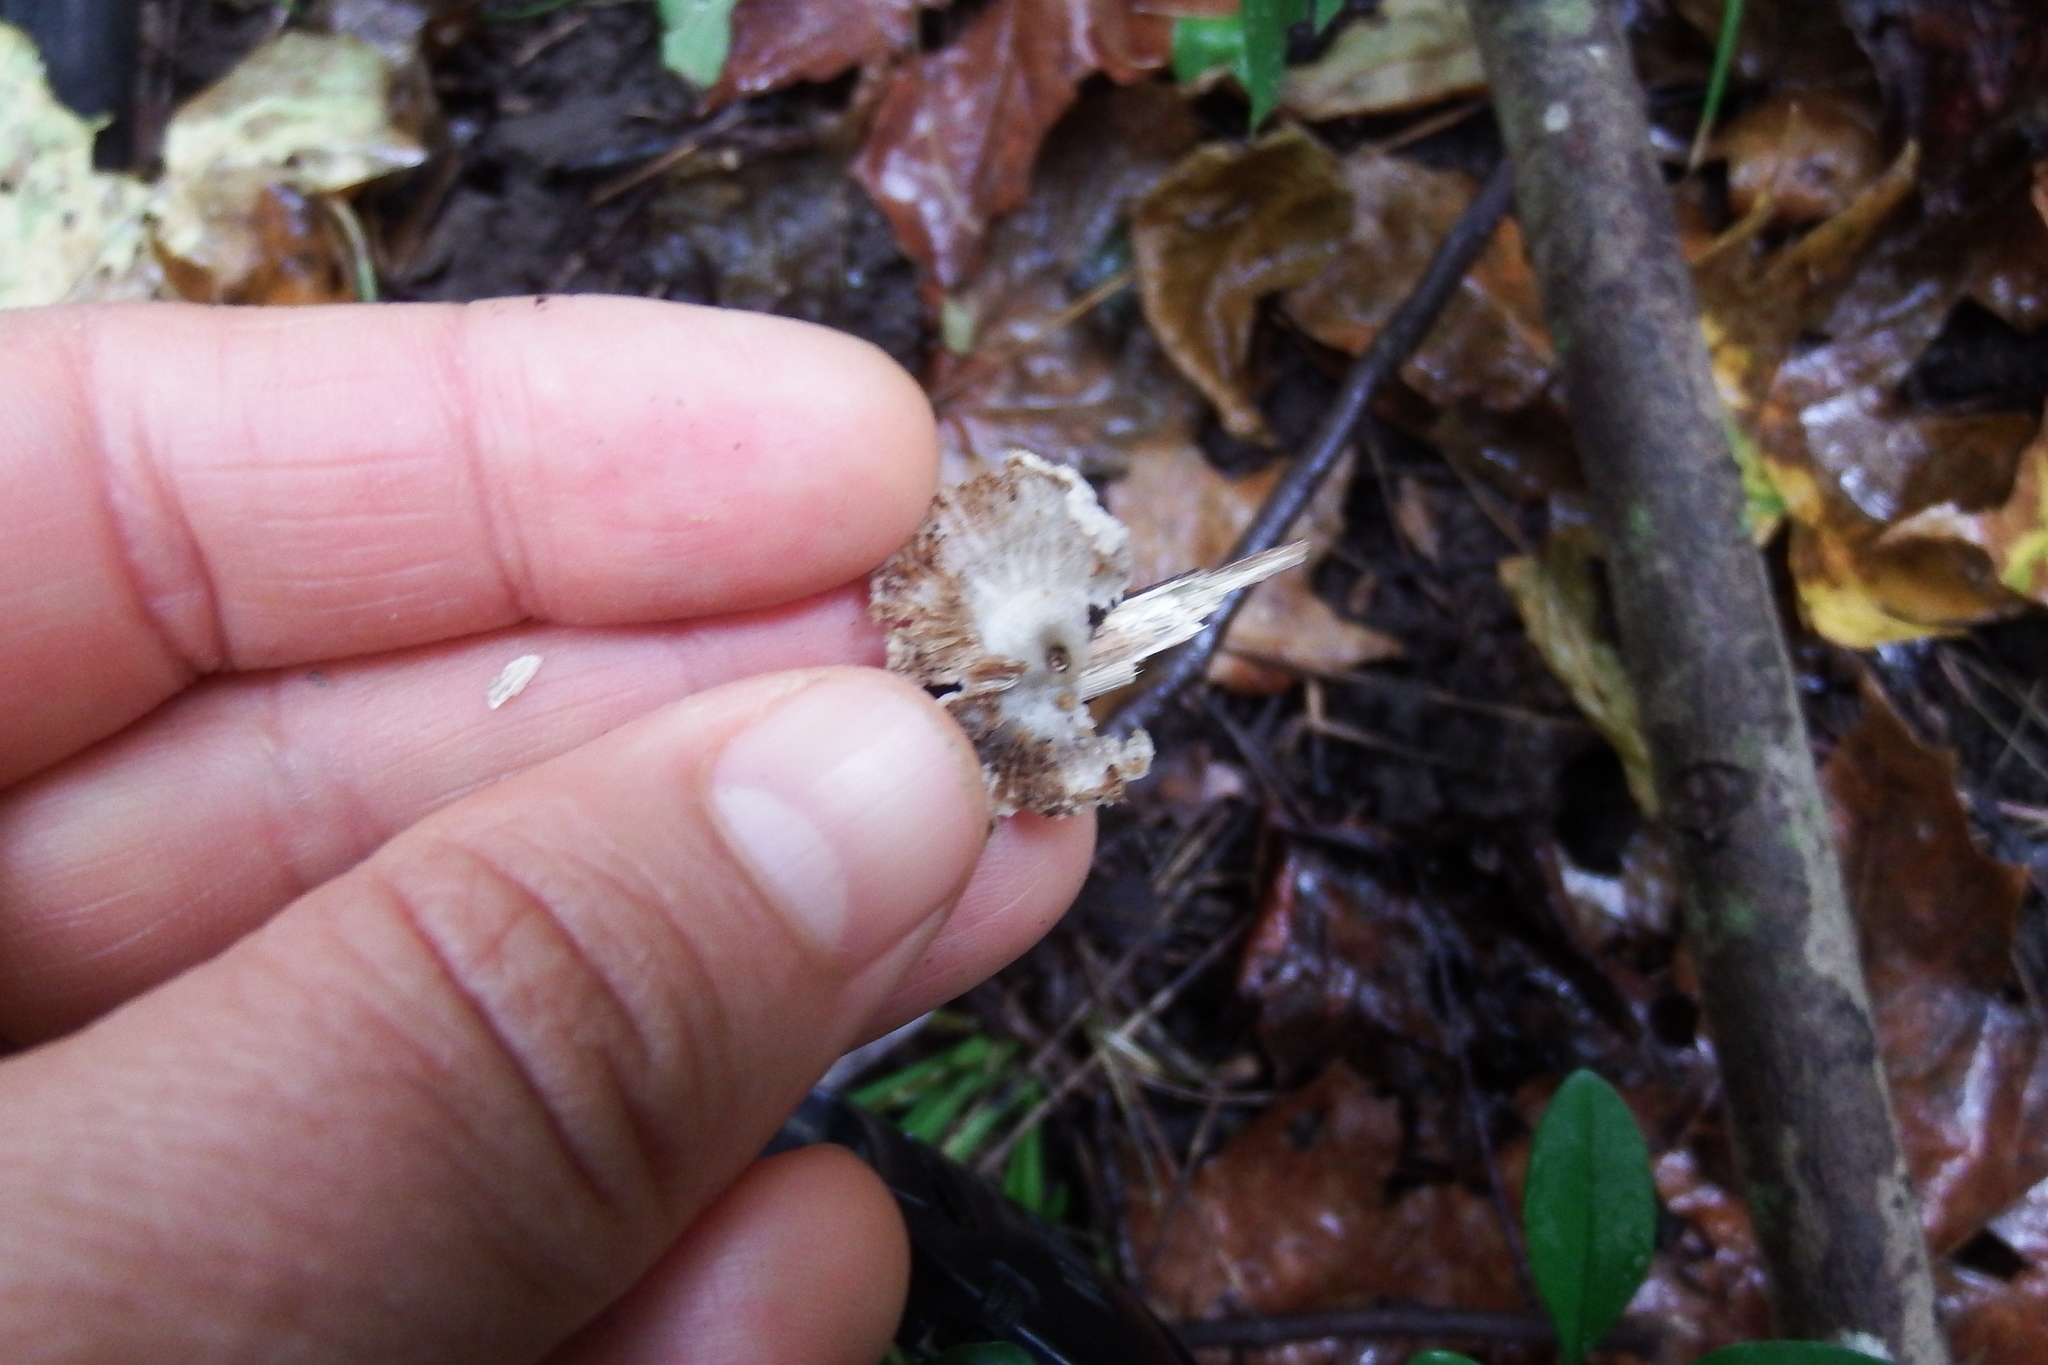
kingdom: Fungi
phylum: Basidiomycota
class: Agaricomycetes
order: Agaricales
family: Schizophyllaceae
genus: Schizophyllum
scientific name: Schizophyllum commune
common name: Common porecrust
